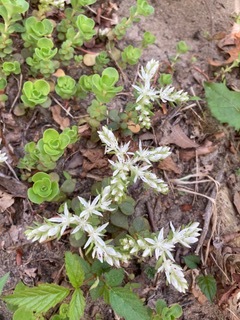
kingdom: Plantae
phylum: Tracheophyta
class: Magnoliopsida
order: Saxifragales
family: Crassulaceae
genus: Sedum
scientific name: Sedum ternatum
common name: Wild stonecrop
